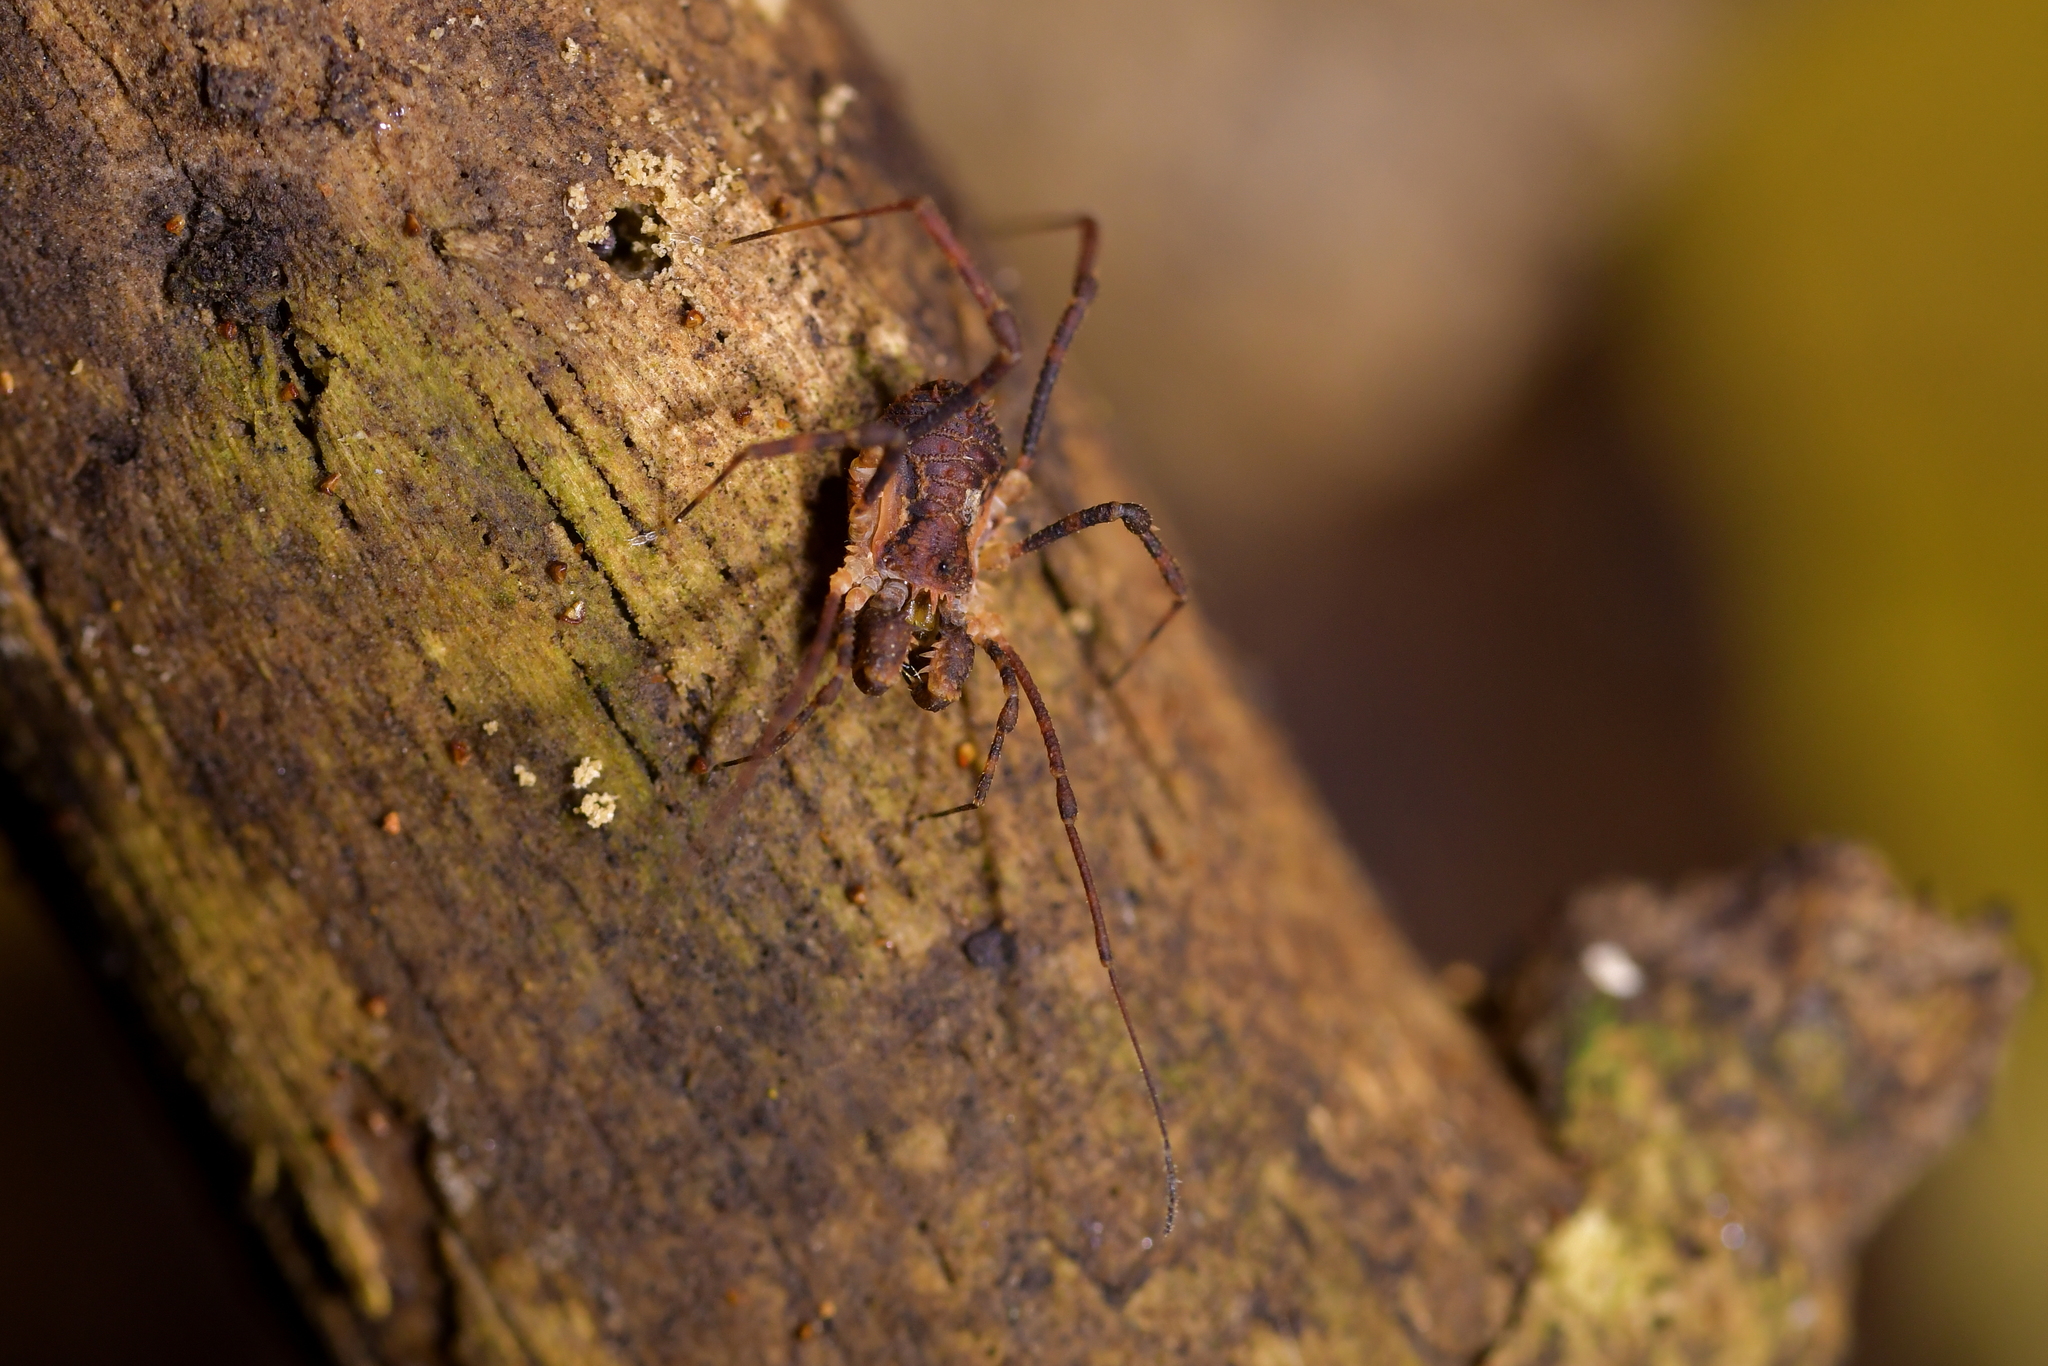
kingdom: Animalia
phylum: Arthropoda
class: Arachnida
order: Opiliones
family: Triaenonychidae
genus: Algidia
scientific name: Algidia nigriflava
